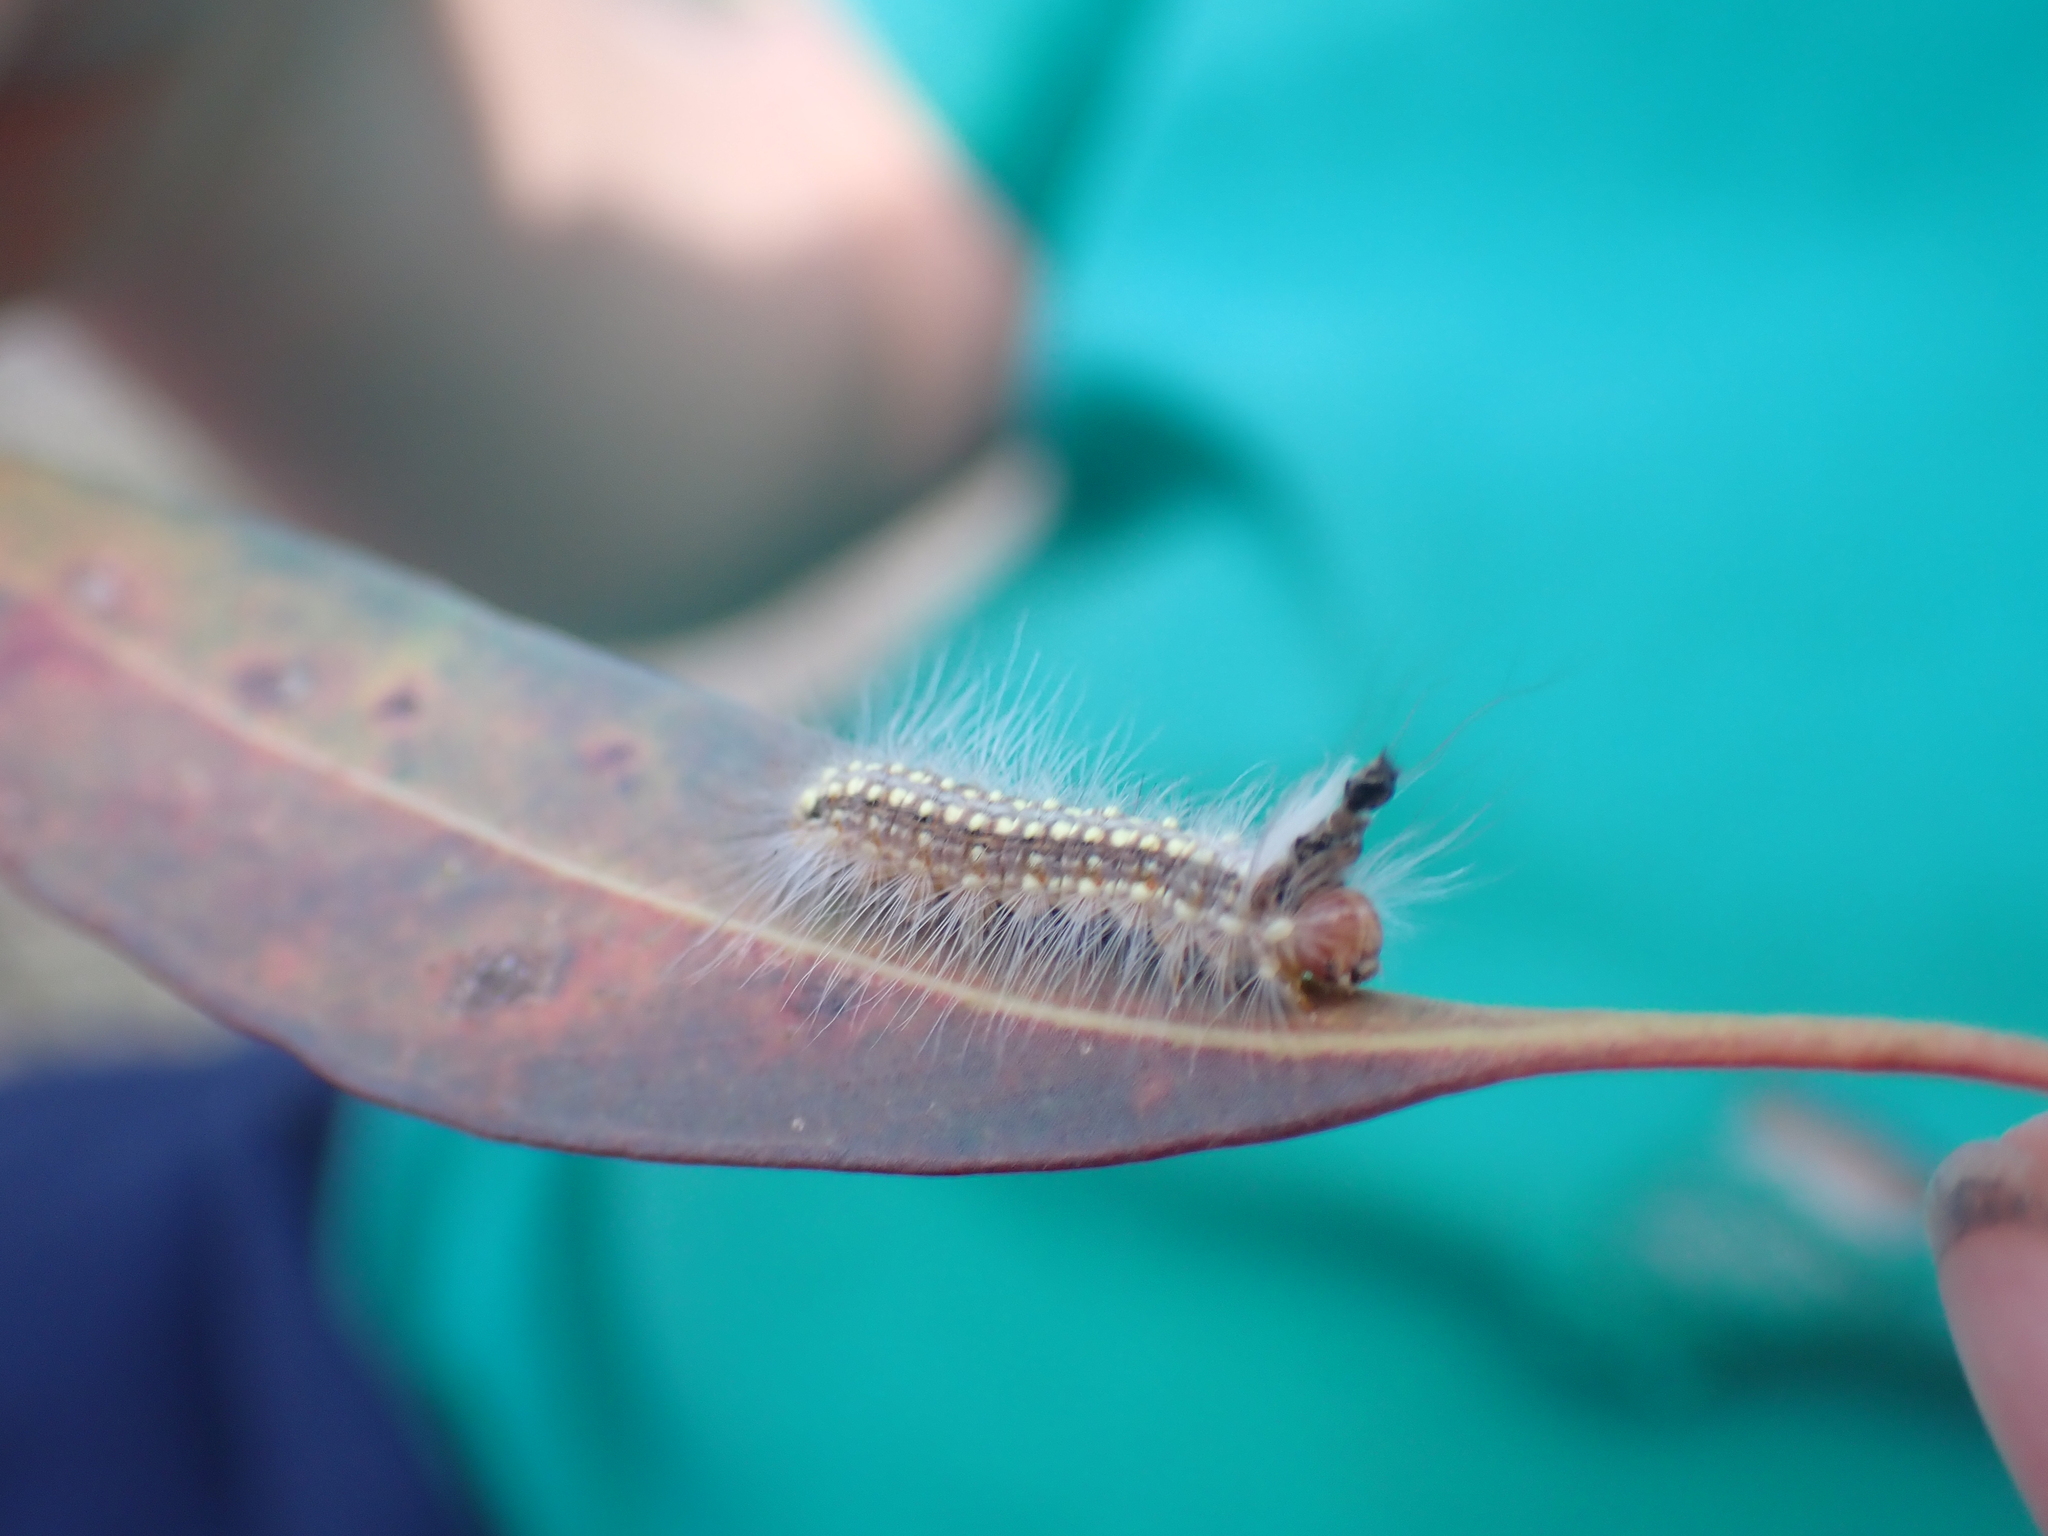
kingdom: Animalia
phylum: Arthropoda
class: Insecta
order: Lepidoptera
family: Nolidae
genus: Uraba
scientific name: Uraba lugens
